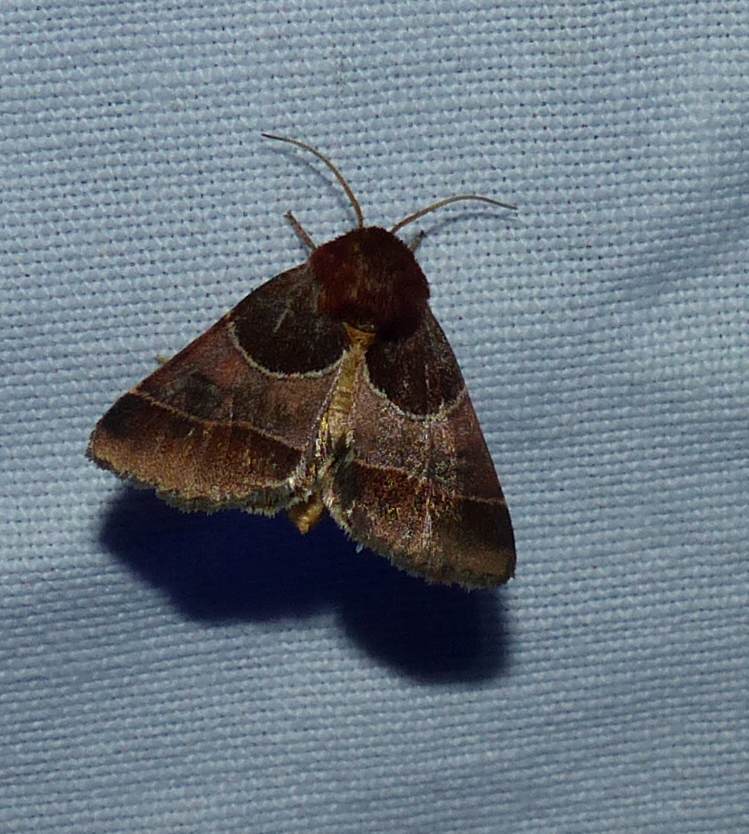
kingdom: Animalia
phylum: Arthropoda
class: Insecta
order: Lepidoptera
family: Noctuidae
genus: Schinia
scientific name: Schinia arcigera
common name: Arcigera flower moth
